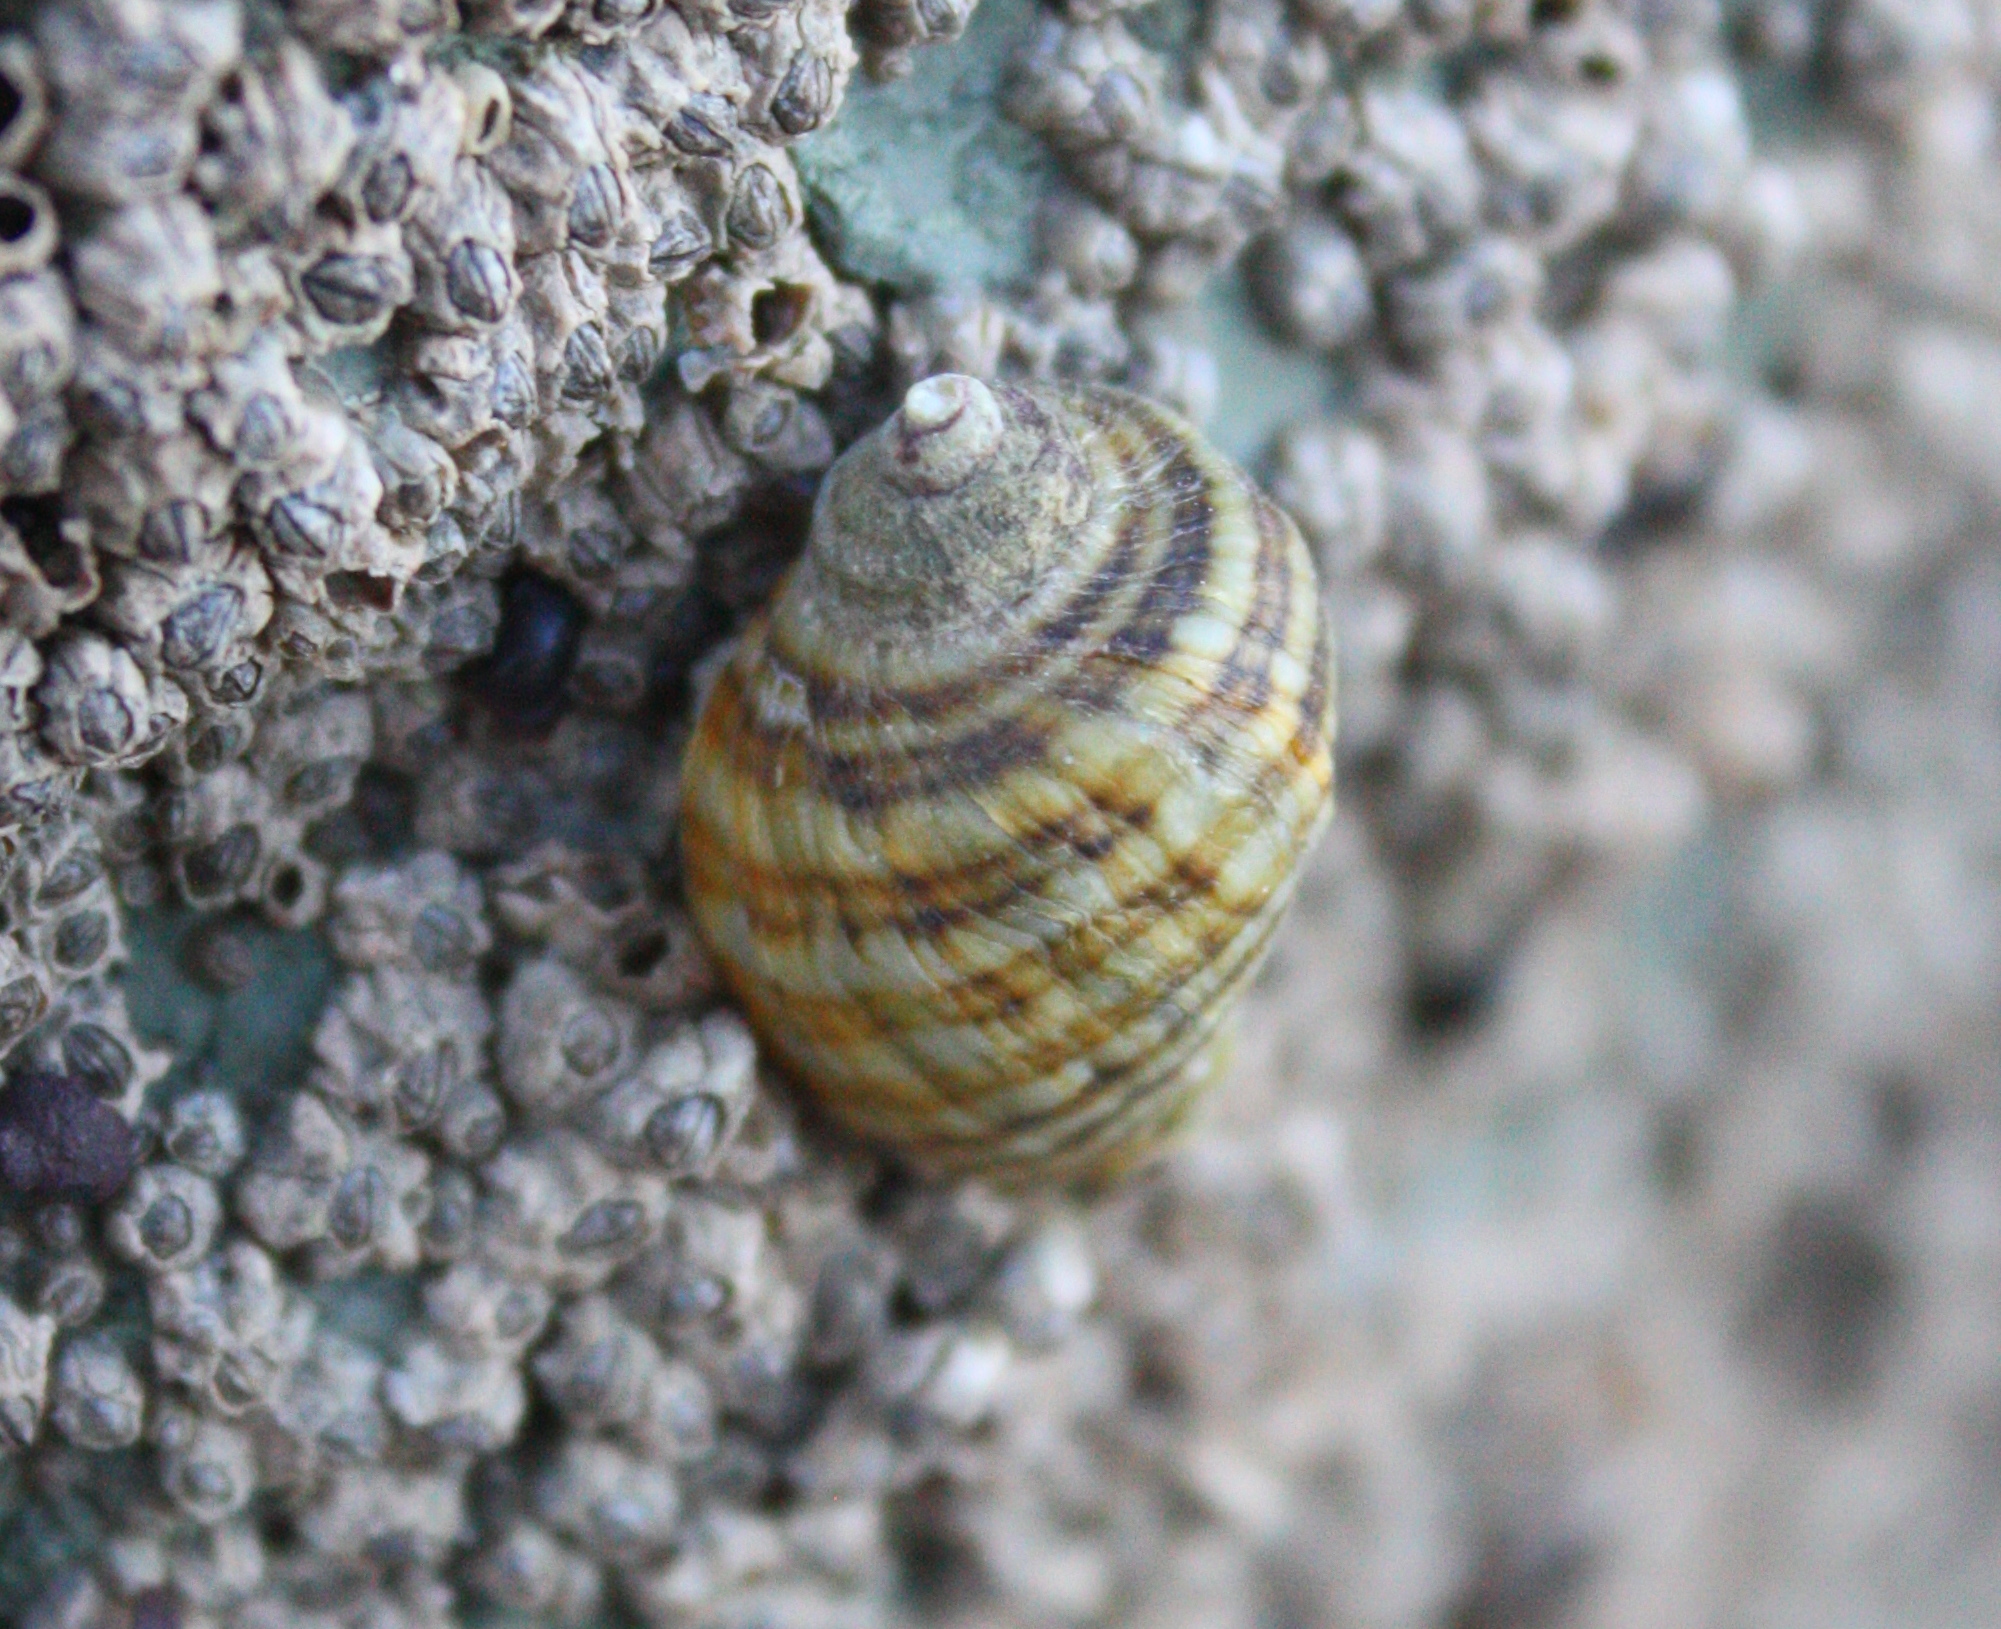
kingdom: Animalia
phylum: Mollusca
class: Gastropoda
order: Neogastropoda
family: Muricidae
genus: Nucella
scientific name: Nucella ostrina
